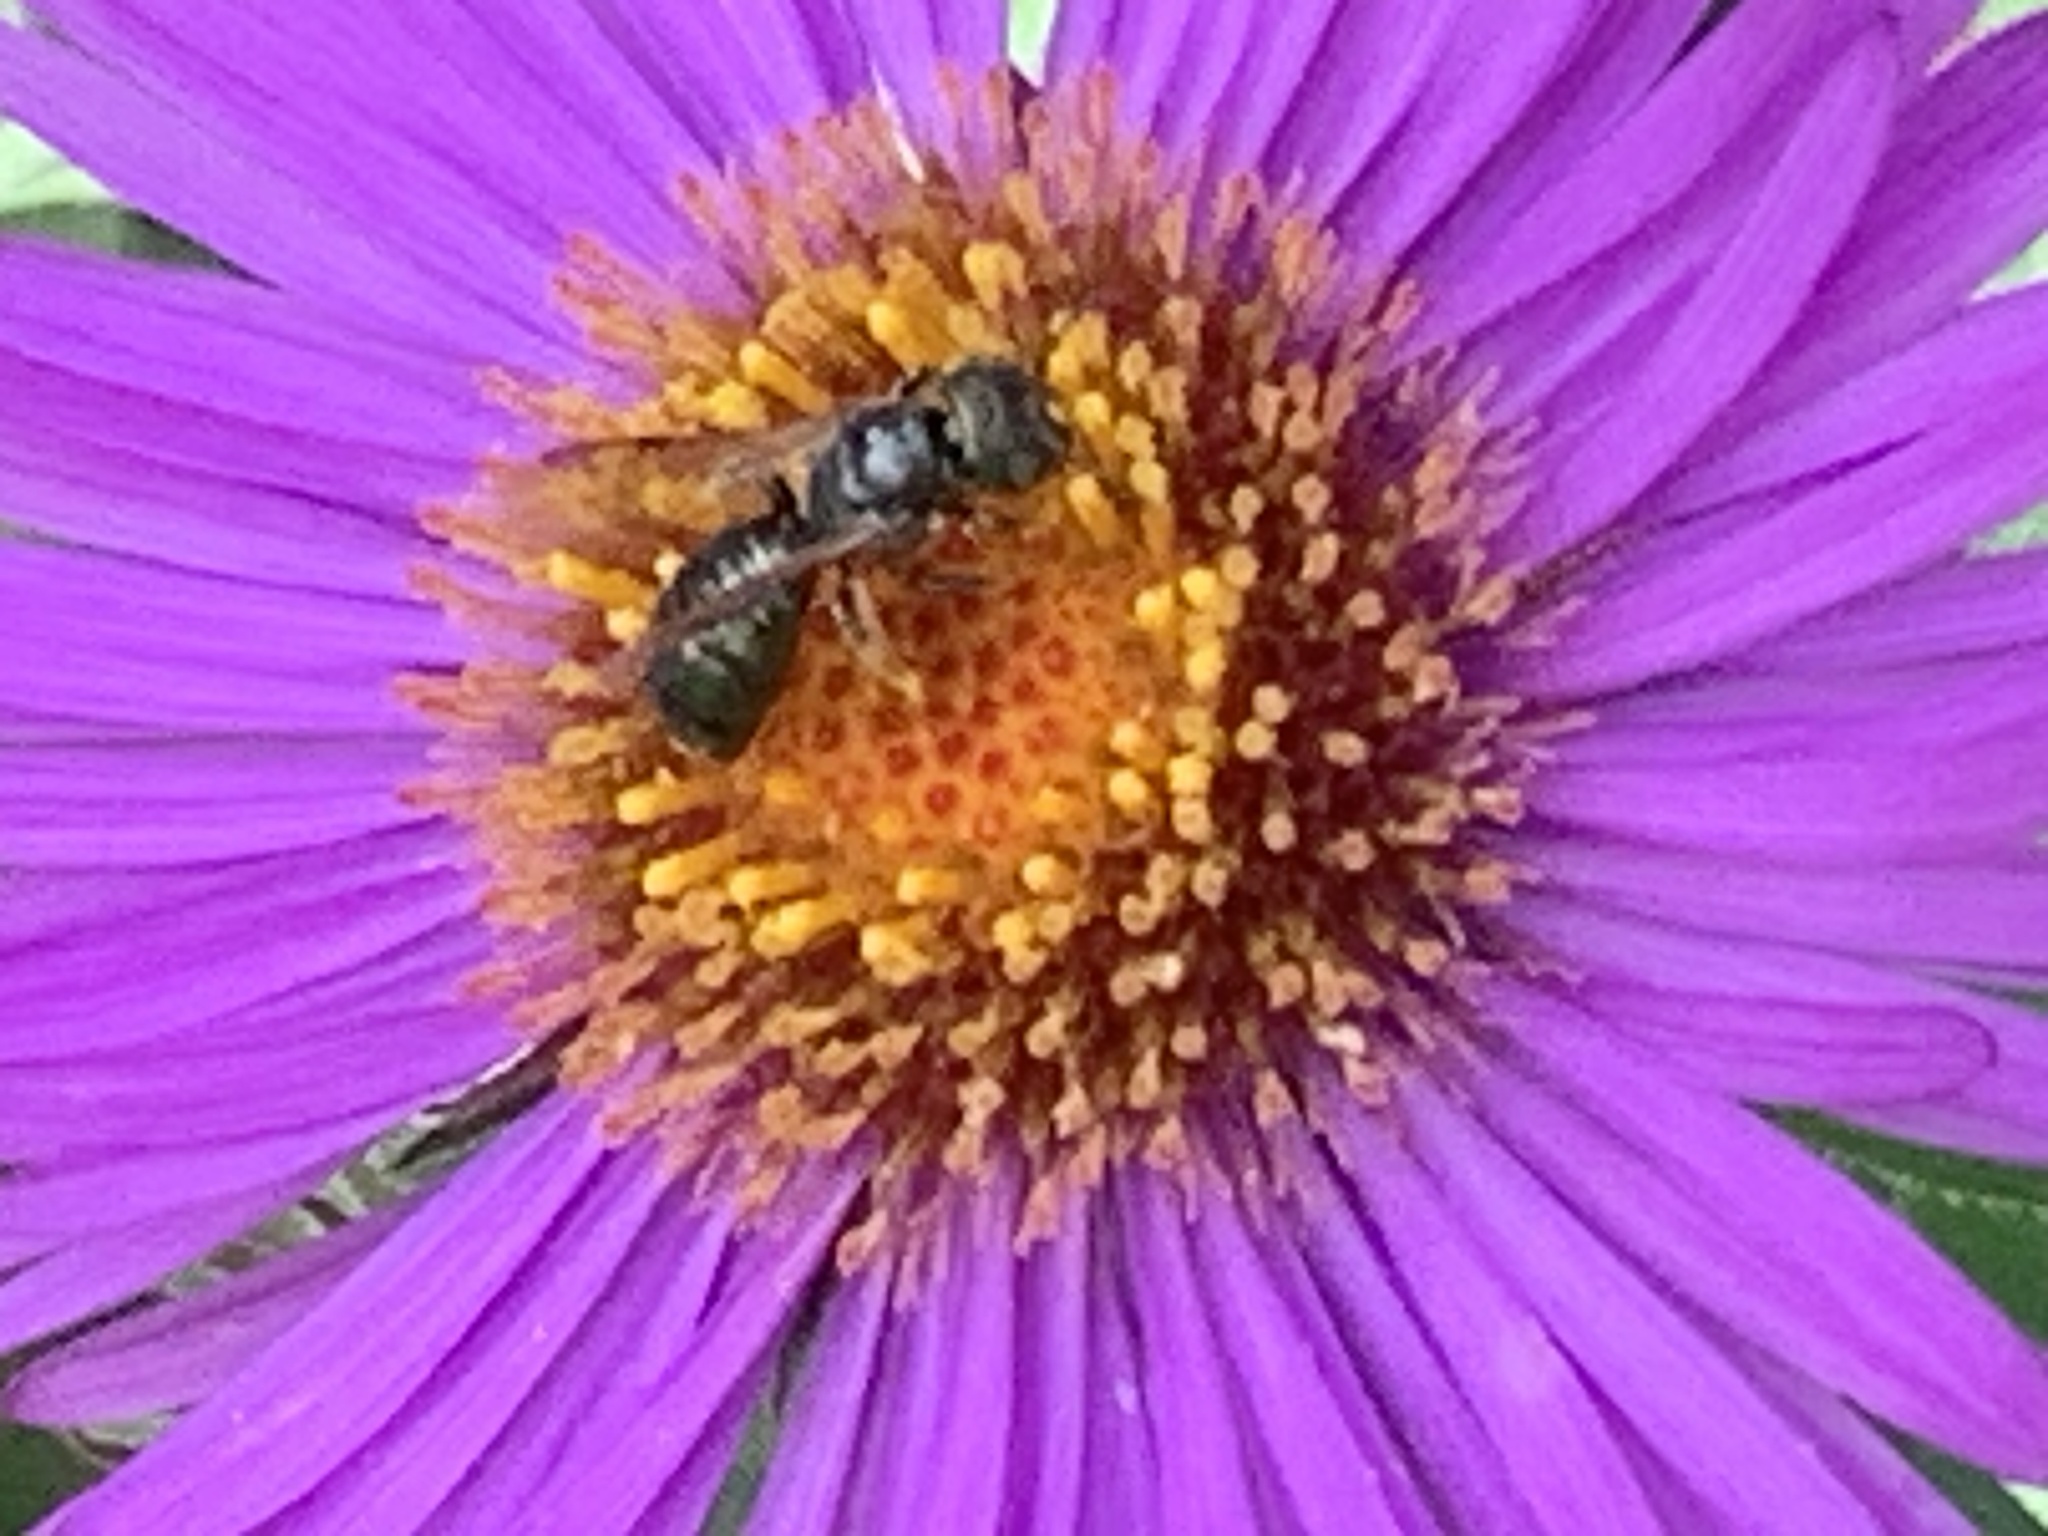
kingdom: Animalia
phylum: Arthropoda
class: Insecta
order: Hymenoptera
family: Apidae
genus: Zadontomerus
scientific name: Zadontomerus
